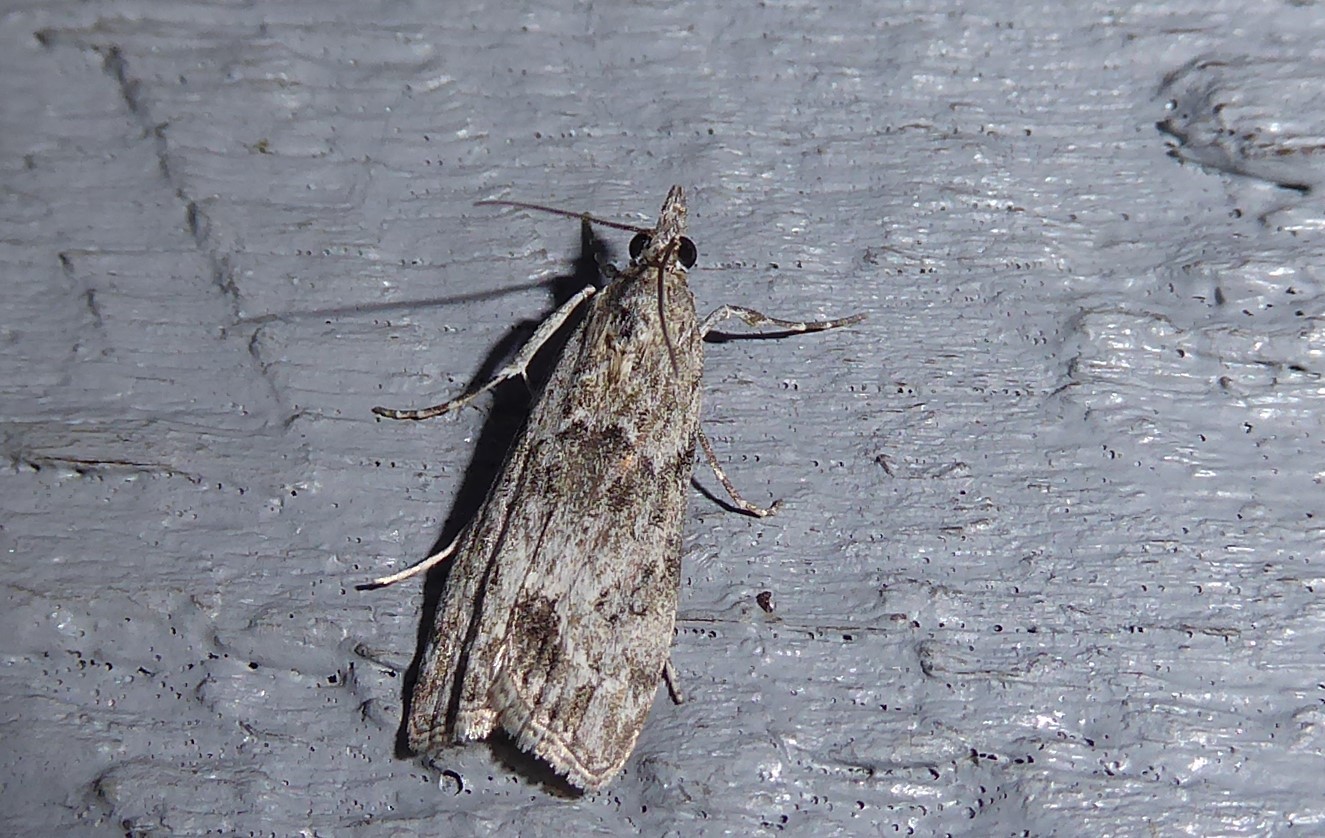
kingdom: Animalia
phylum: Arthropoda
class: Insecta
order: Lepidoptera
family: Crambidae
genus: Eudonia
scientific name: Eudonia rakaiensis
